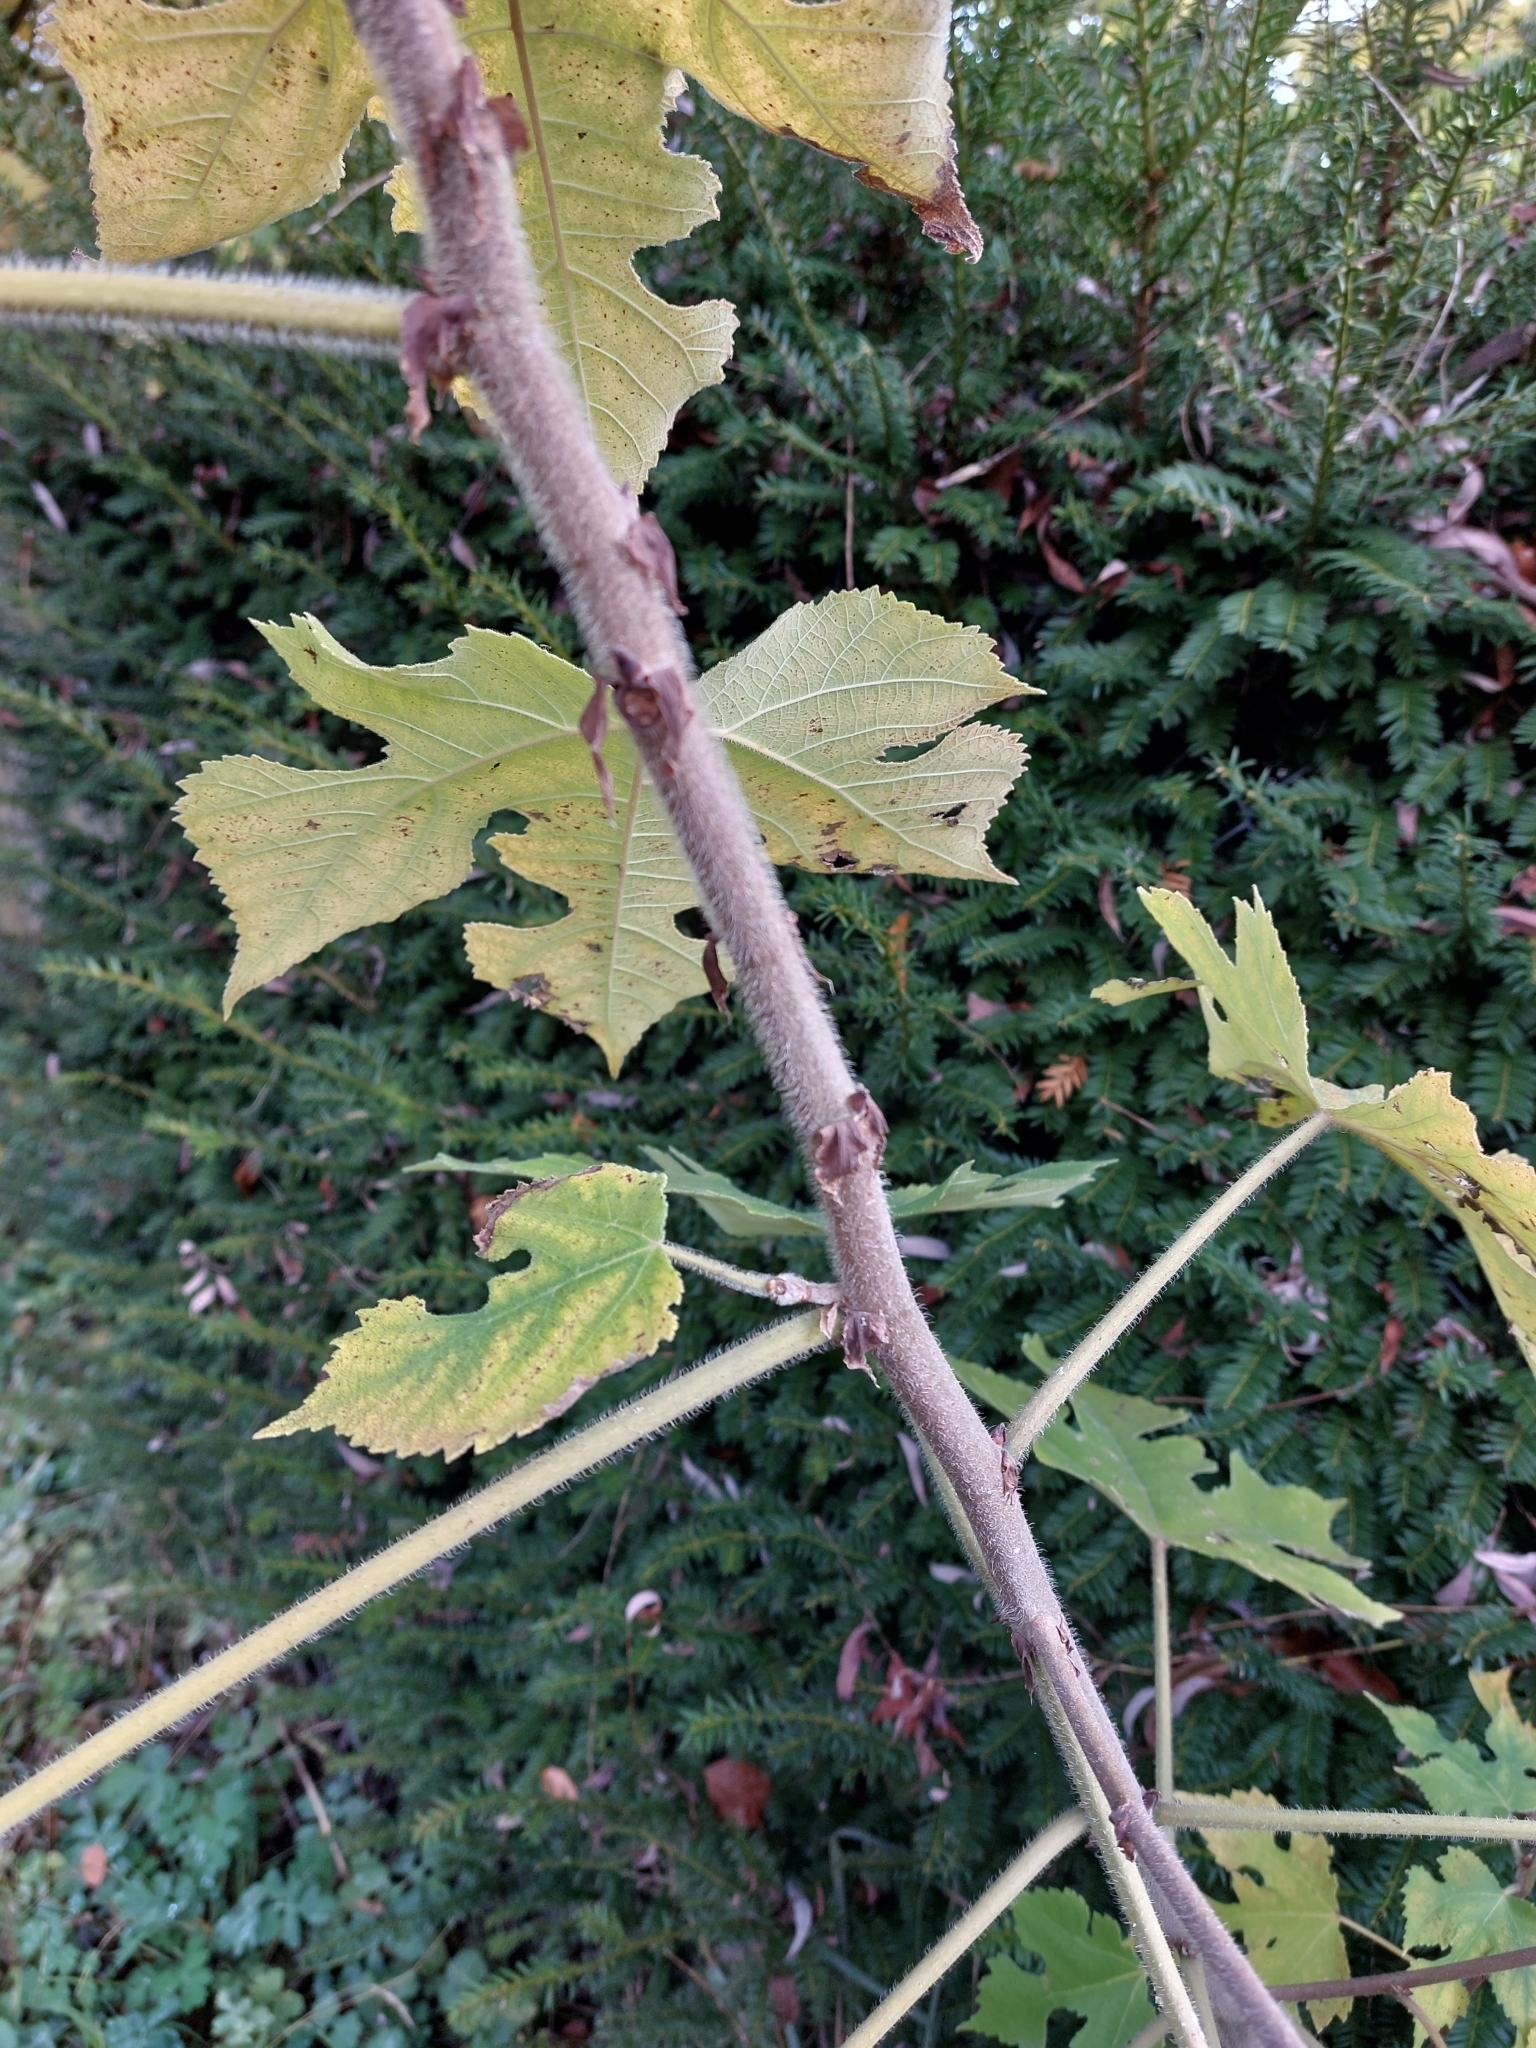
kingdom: Plantae
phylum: Tracheophyta
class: Magnoliopsida
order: Rosales
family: Moraceae
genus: Broussonetia
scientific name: Broussonetia papyrifera
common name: Paper mulberry
